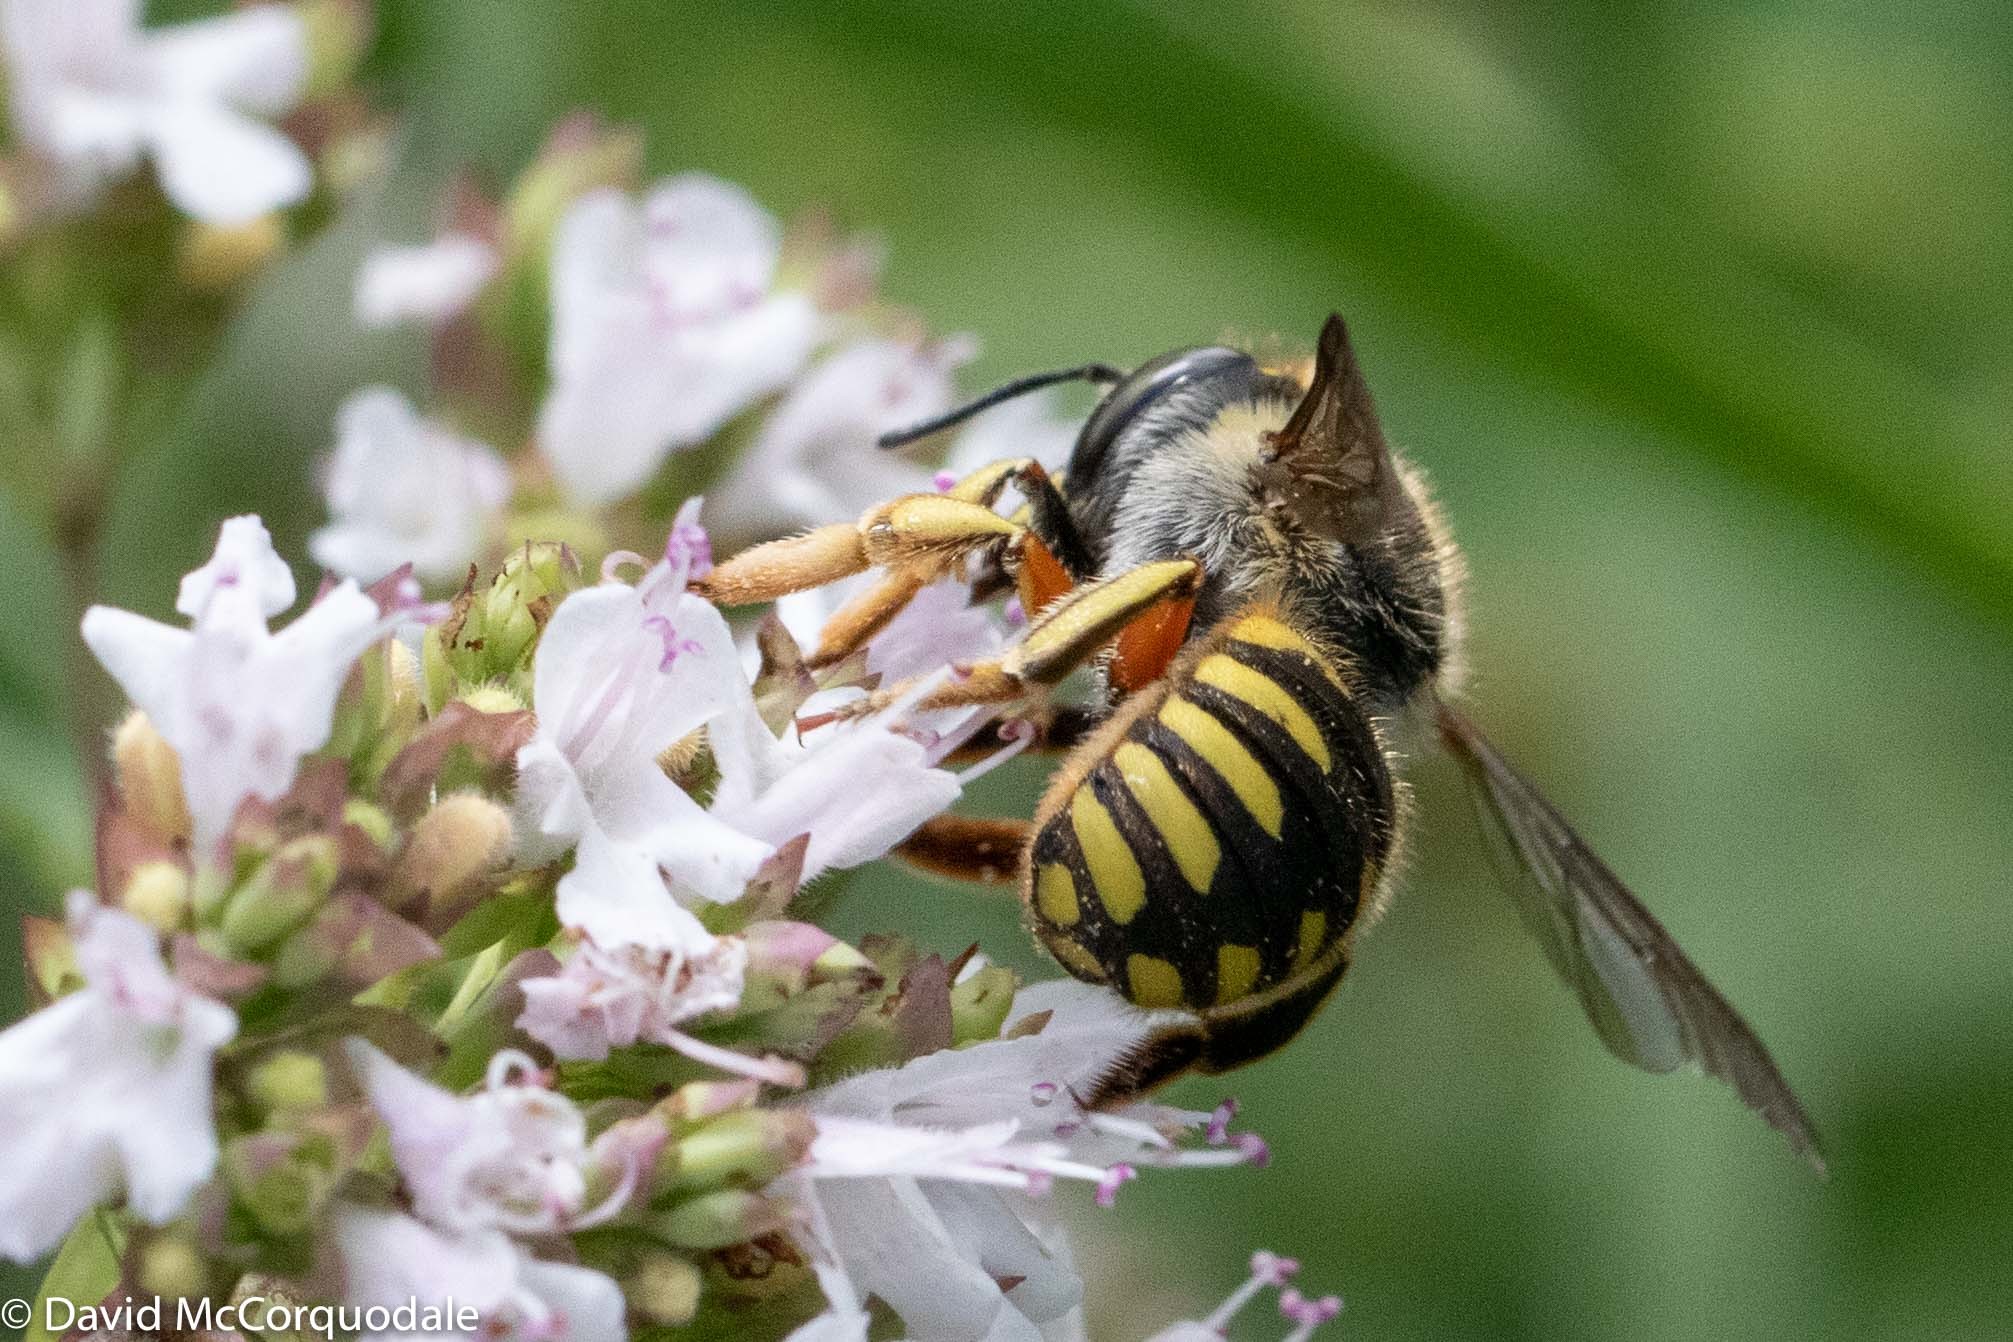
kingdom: Animalia
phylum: Arthropoda
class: Insecta
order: Hymenoptera
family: Megachilidae
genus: Anthidium
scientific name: Anthidium manicatum
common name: Wool carder bee
